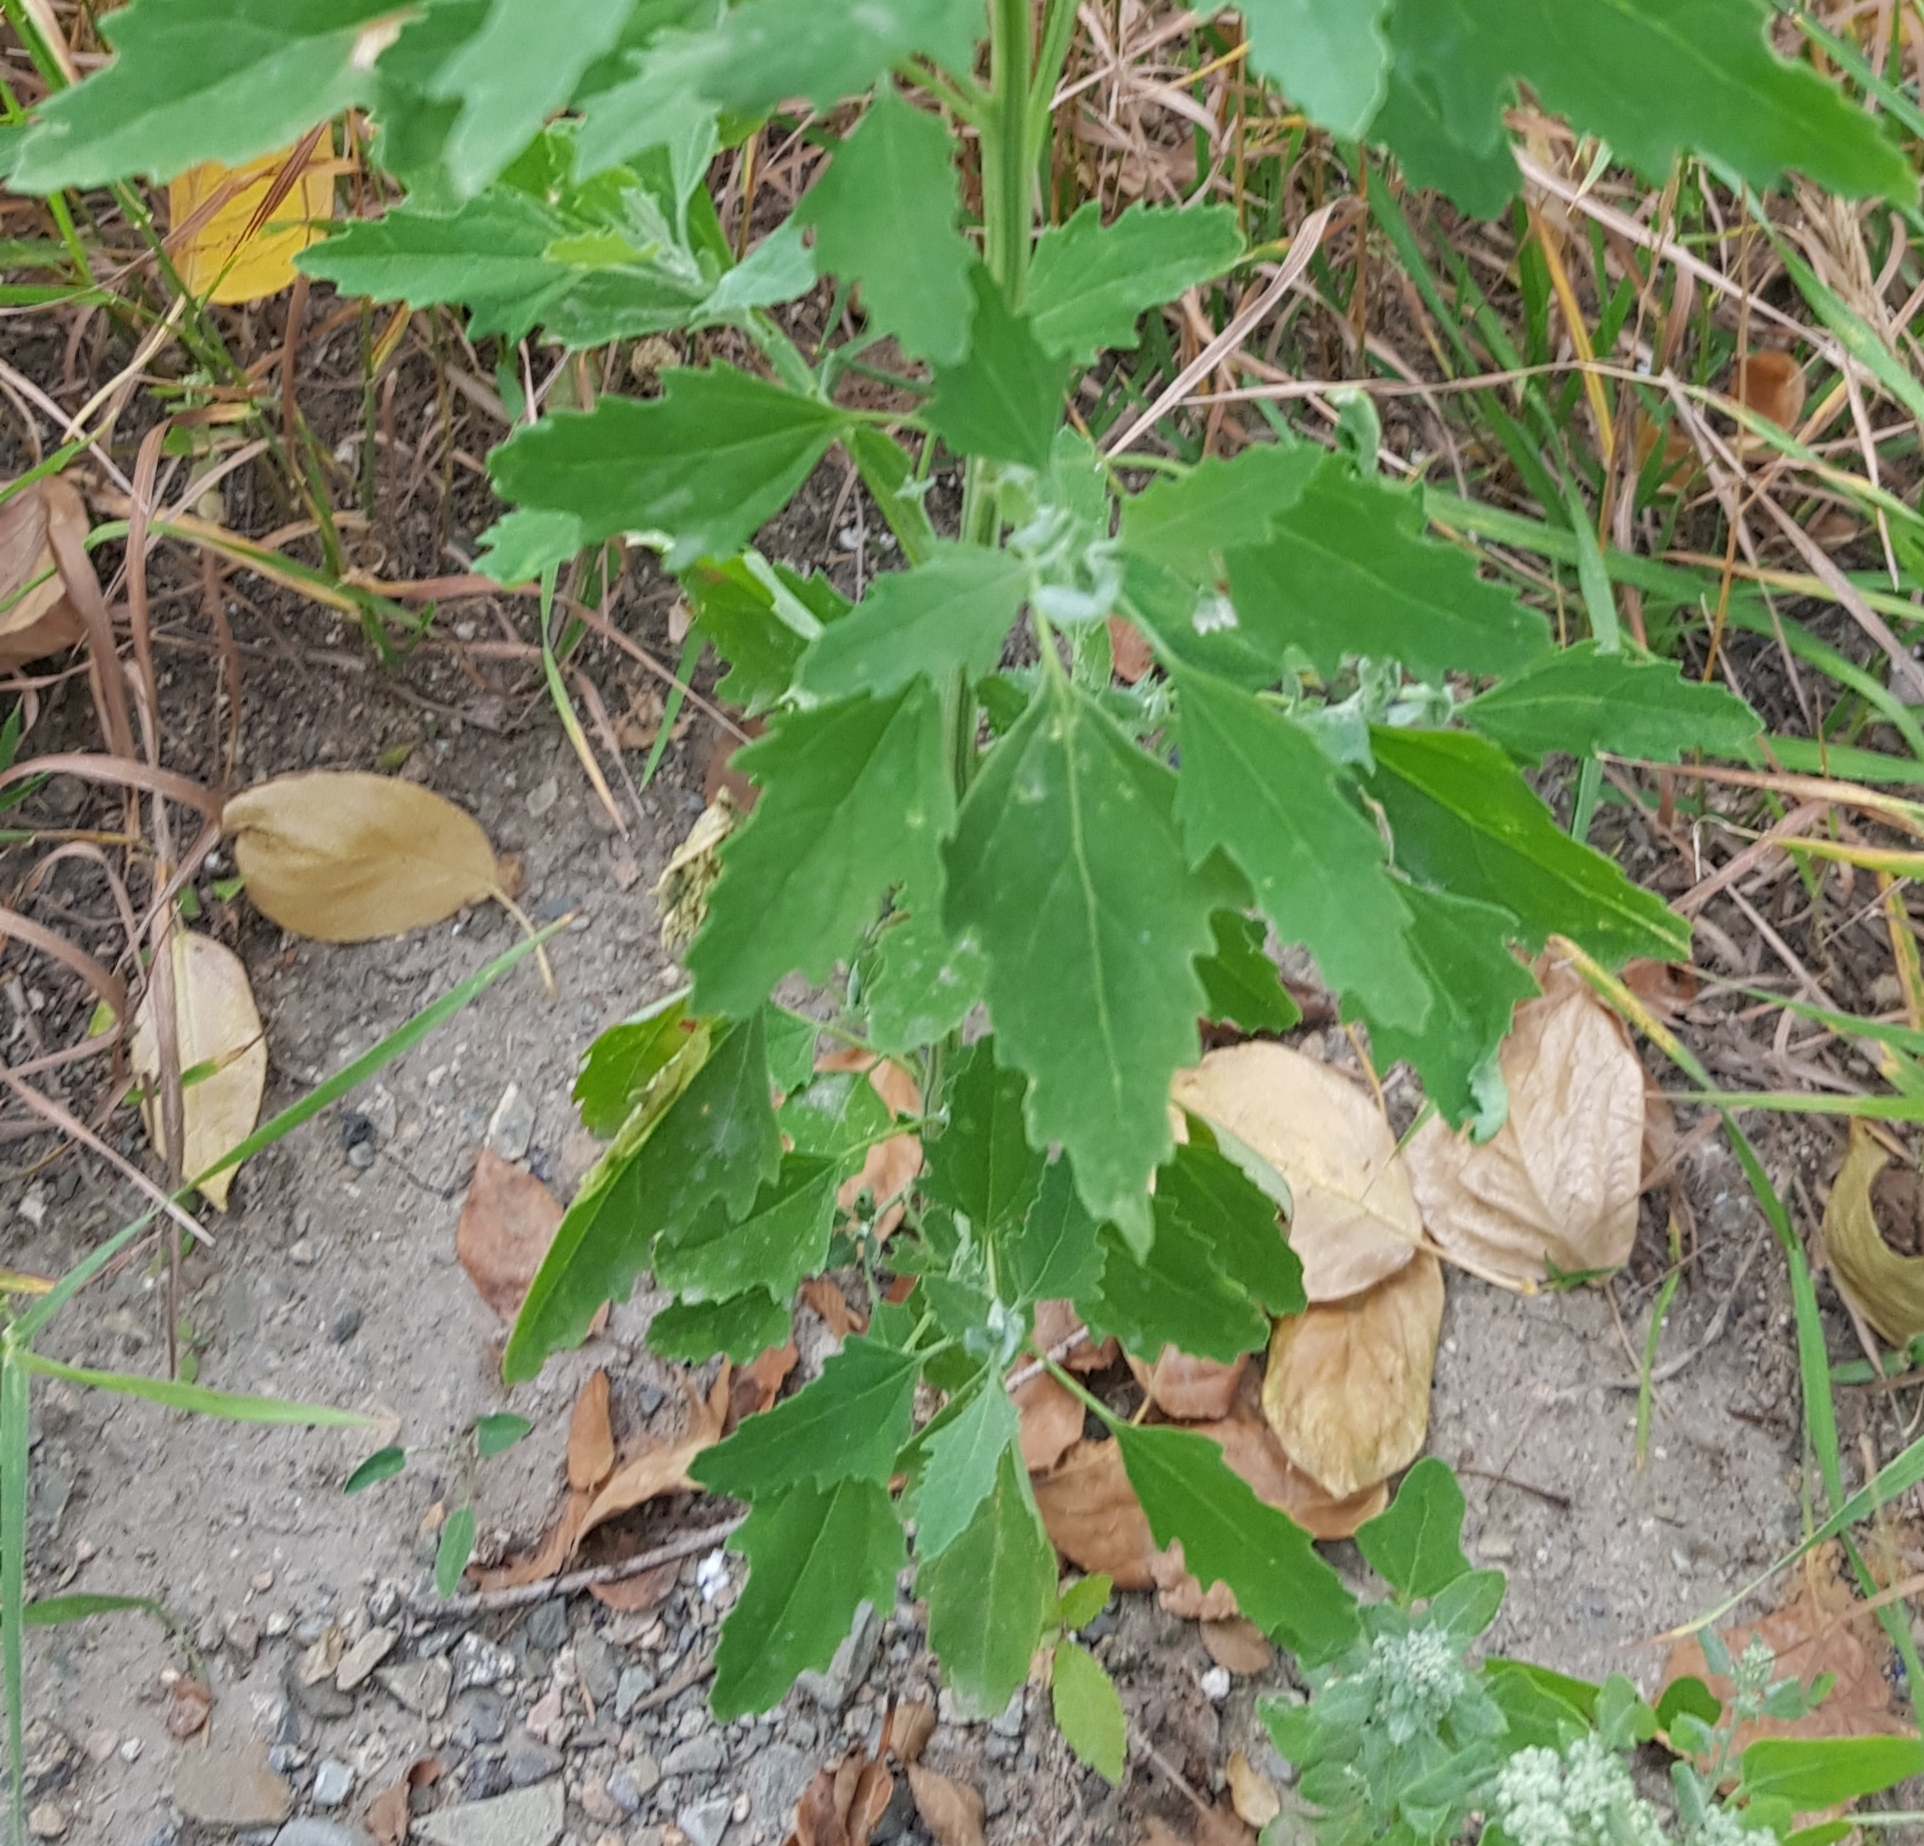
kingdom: Plantae
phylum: Tracheophyta
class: Magnoliopsida
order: Caryophyllales
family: Amaranthaceae
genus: Chenopodium
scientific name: Chenopodium album
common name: Fat-hen
